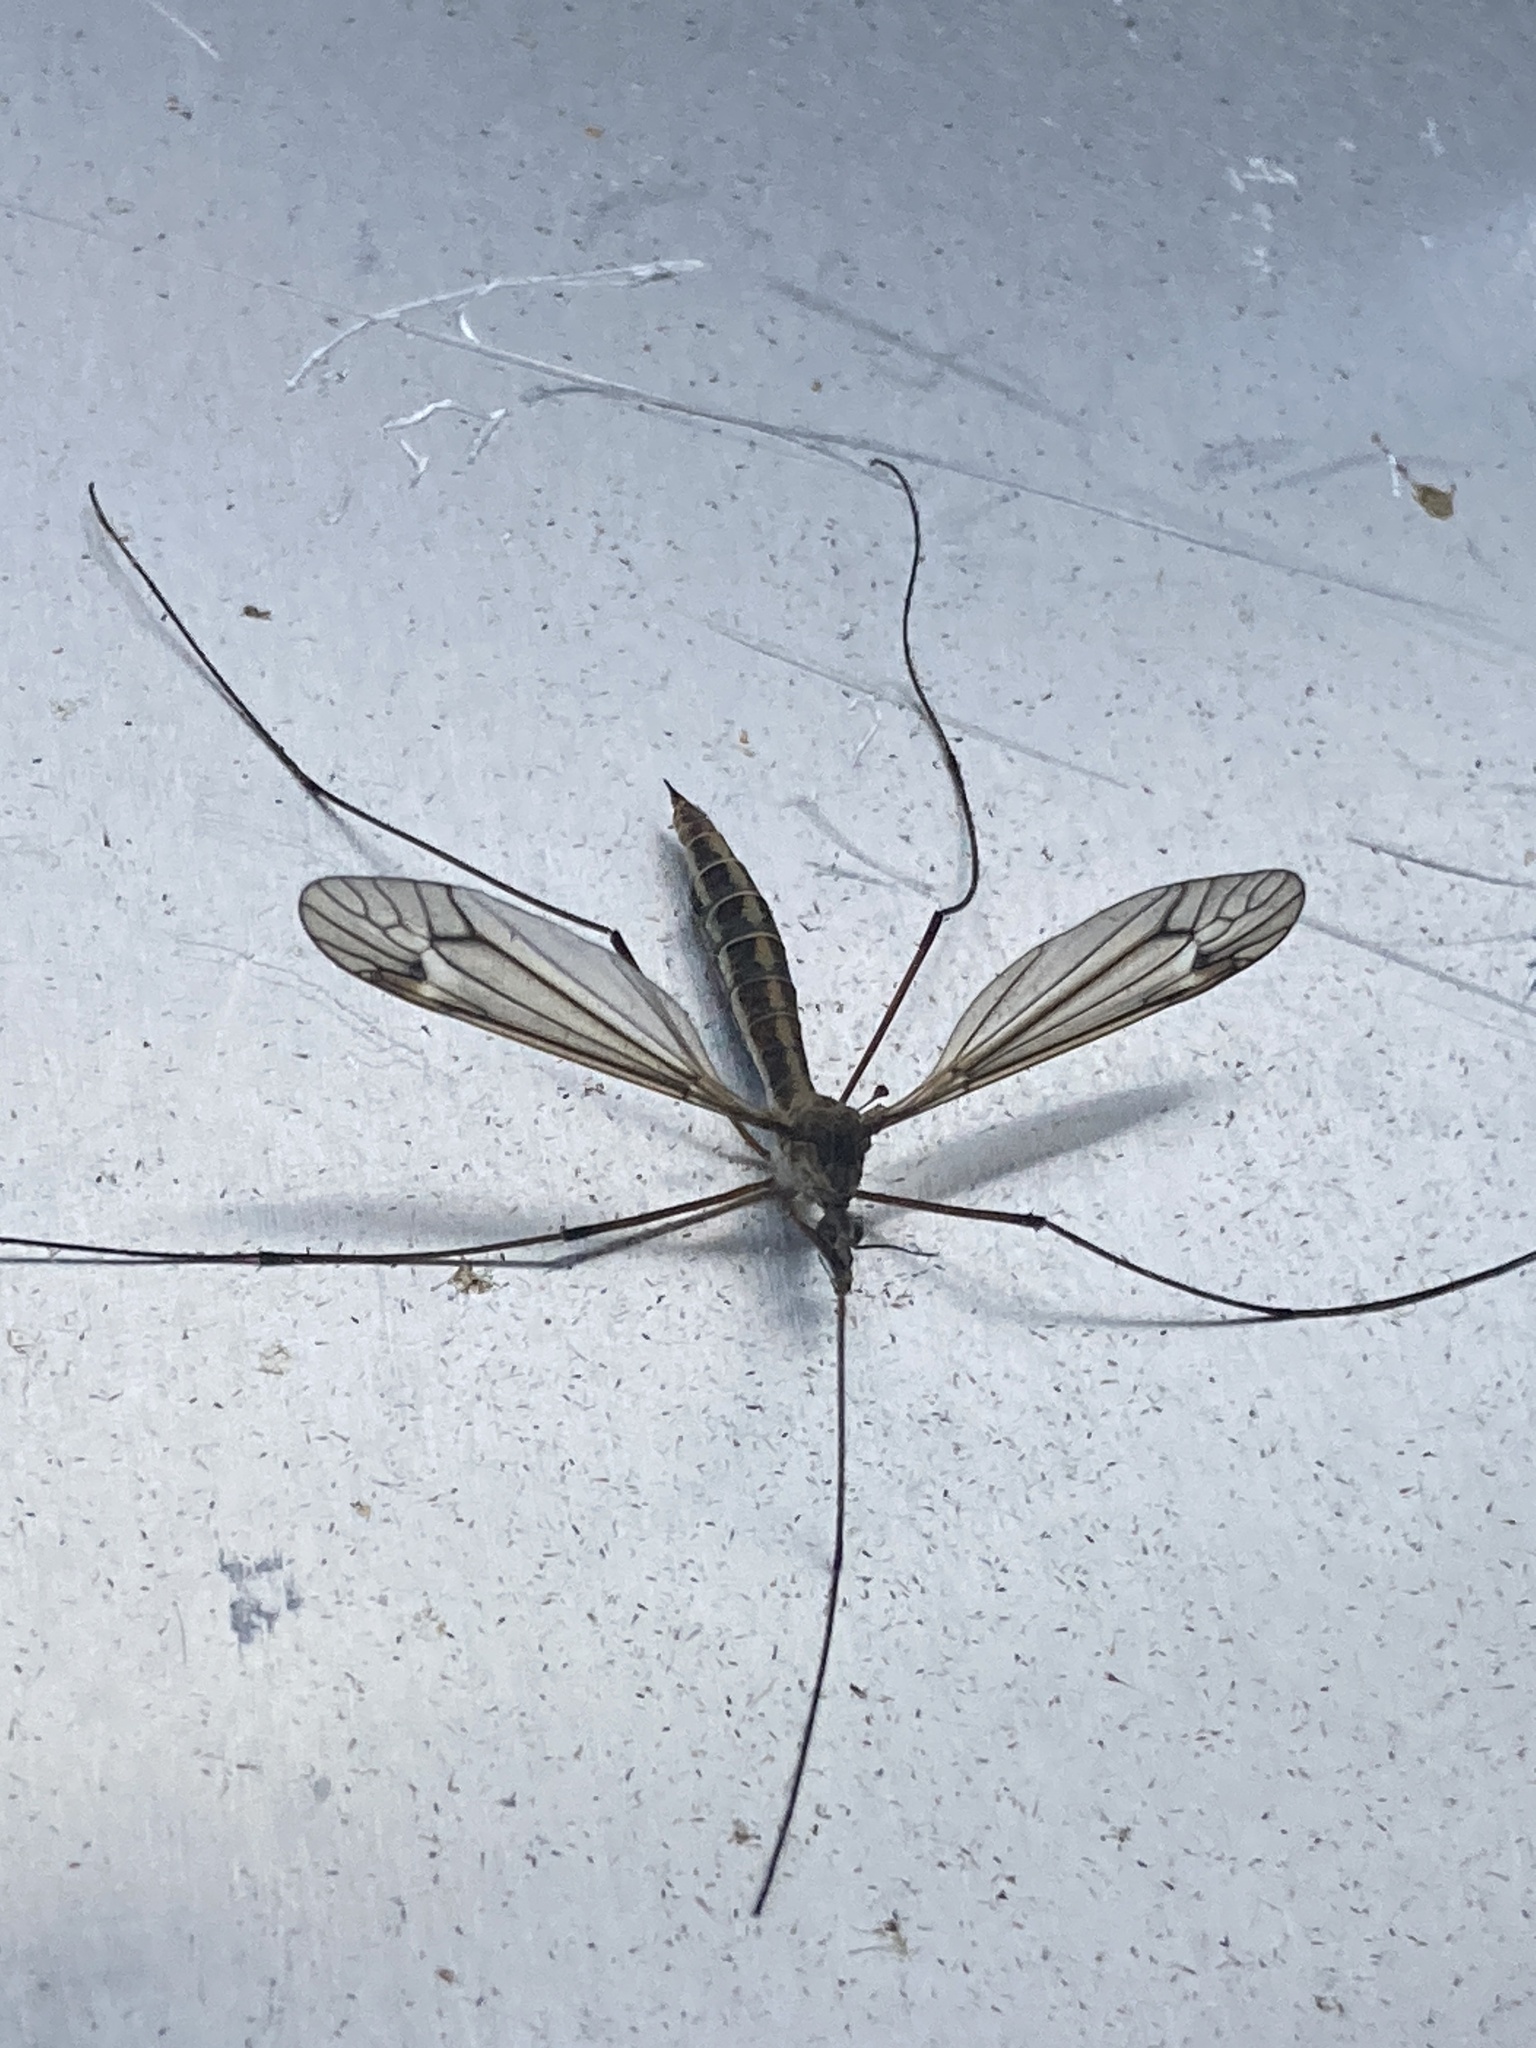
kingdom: Animalia
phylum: Arthropoda
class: Insecta
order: Diptera
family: Tipulidae
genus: Tipula
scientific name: Tipula luna
